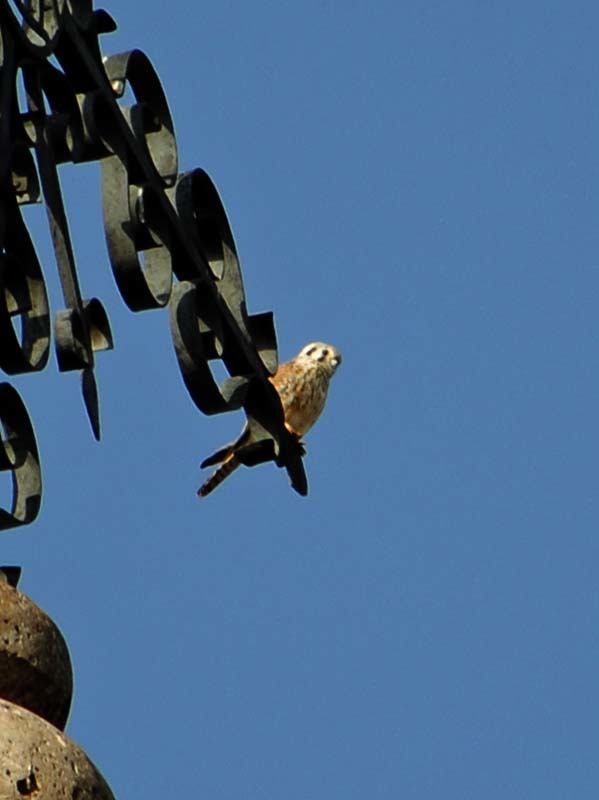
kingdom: Animalia
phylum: Chordata
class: Aves
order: Falconiformes
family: Falconidae
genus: Falco
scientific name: Falco sparverius
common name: American kestrel
